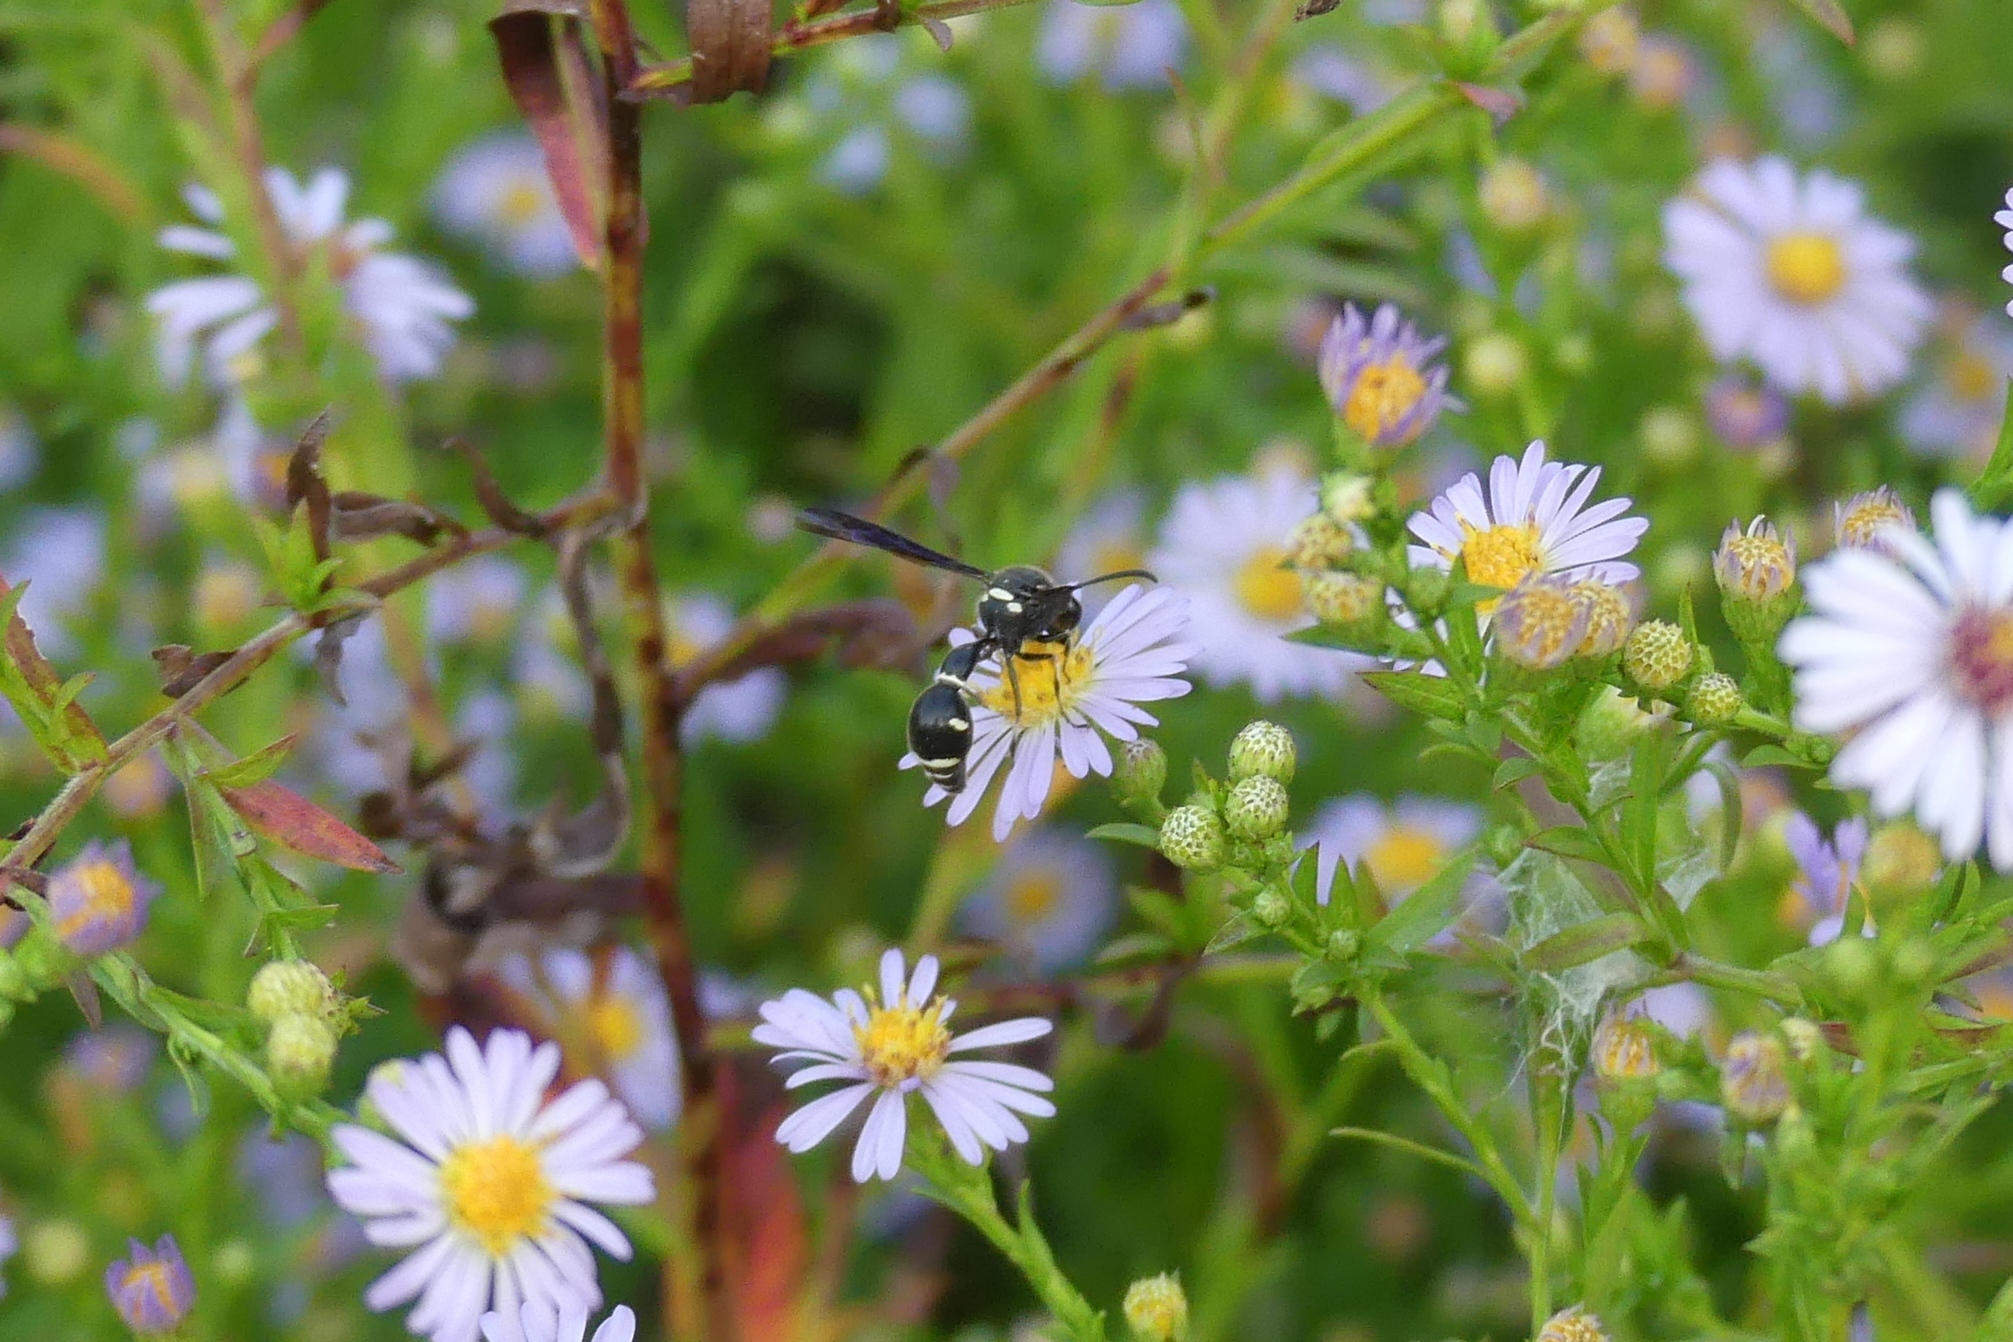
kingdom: Animalia
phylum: Arthropoda
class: Insecta
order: Hymenoptera
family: Vespidae
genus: Eumenes
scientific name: Eumenes fraternus
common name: Fraternal potter wasp
